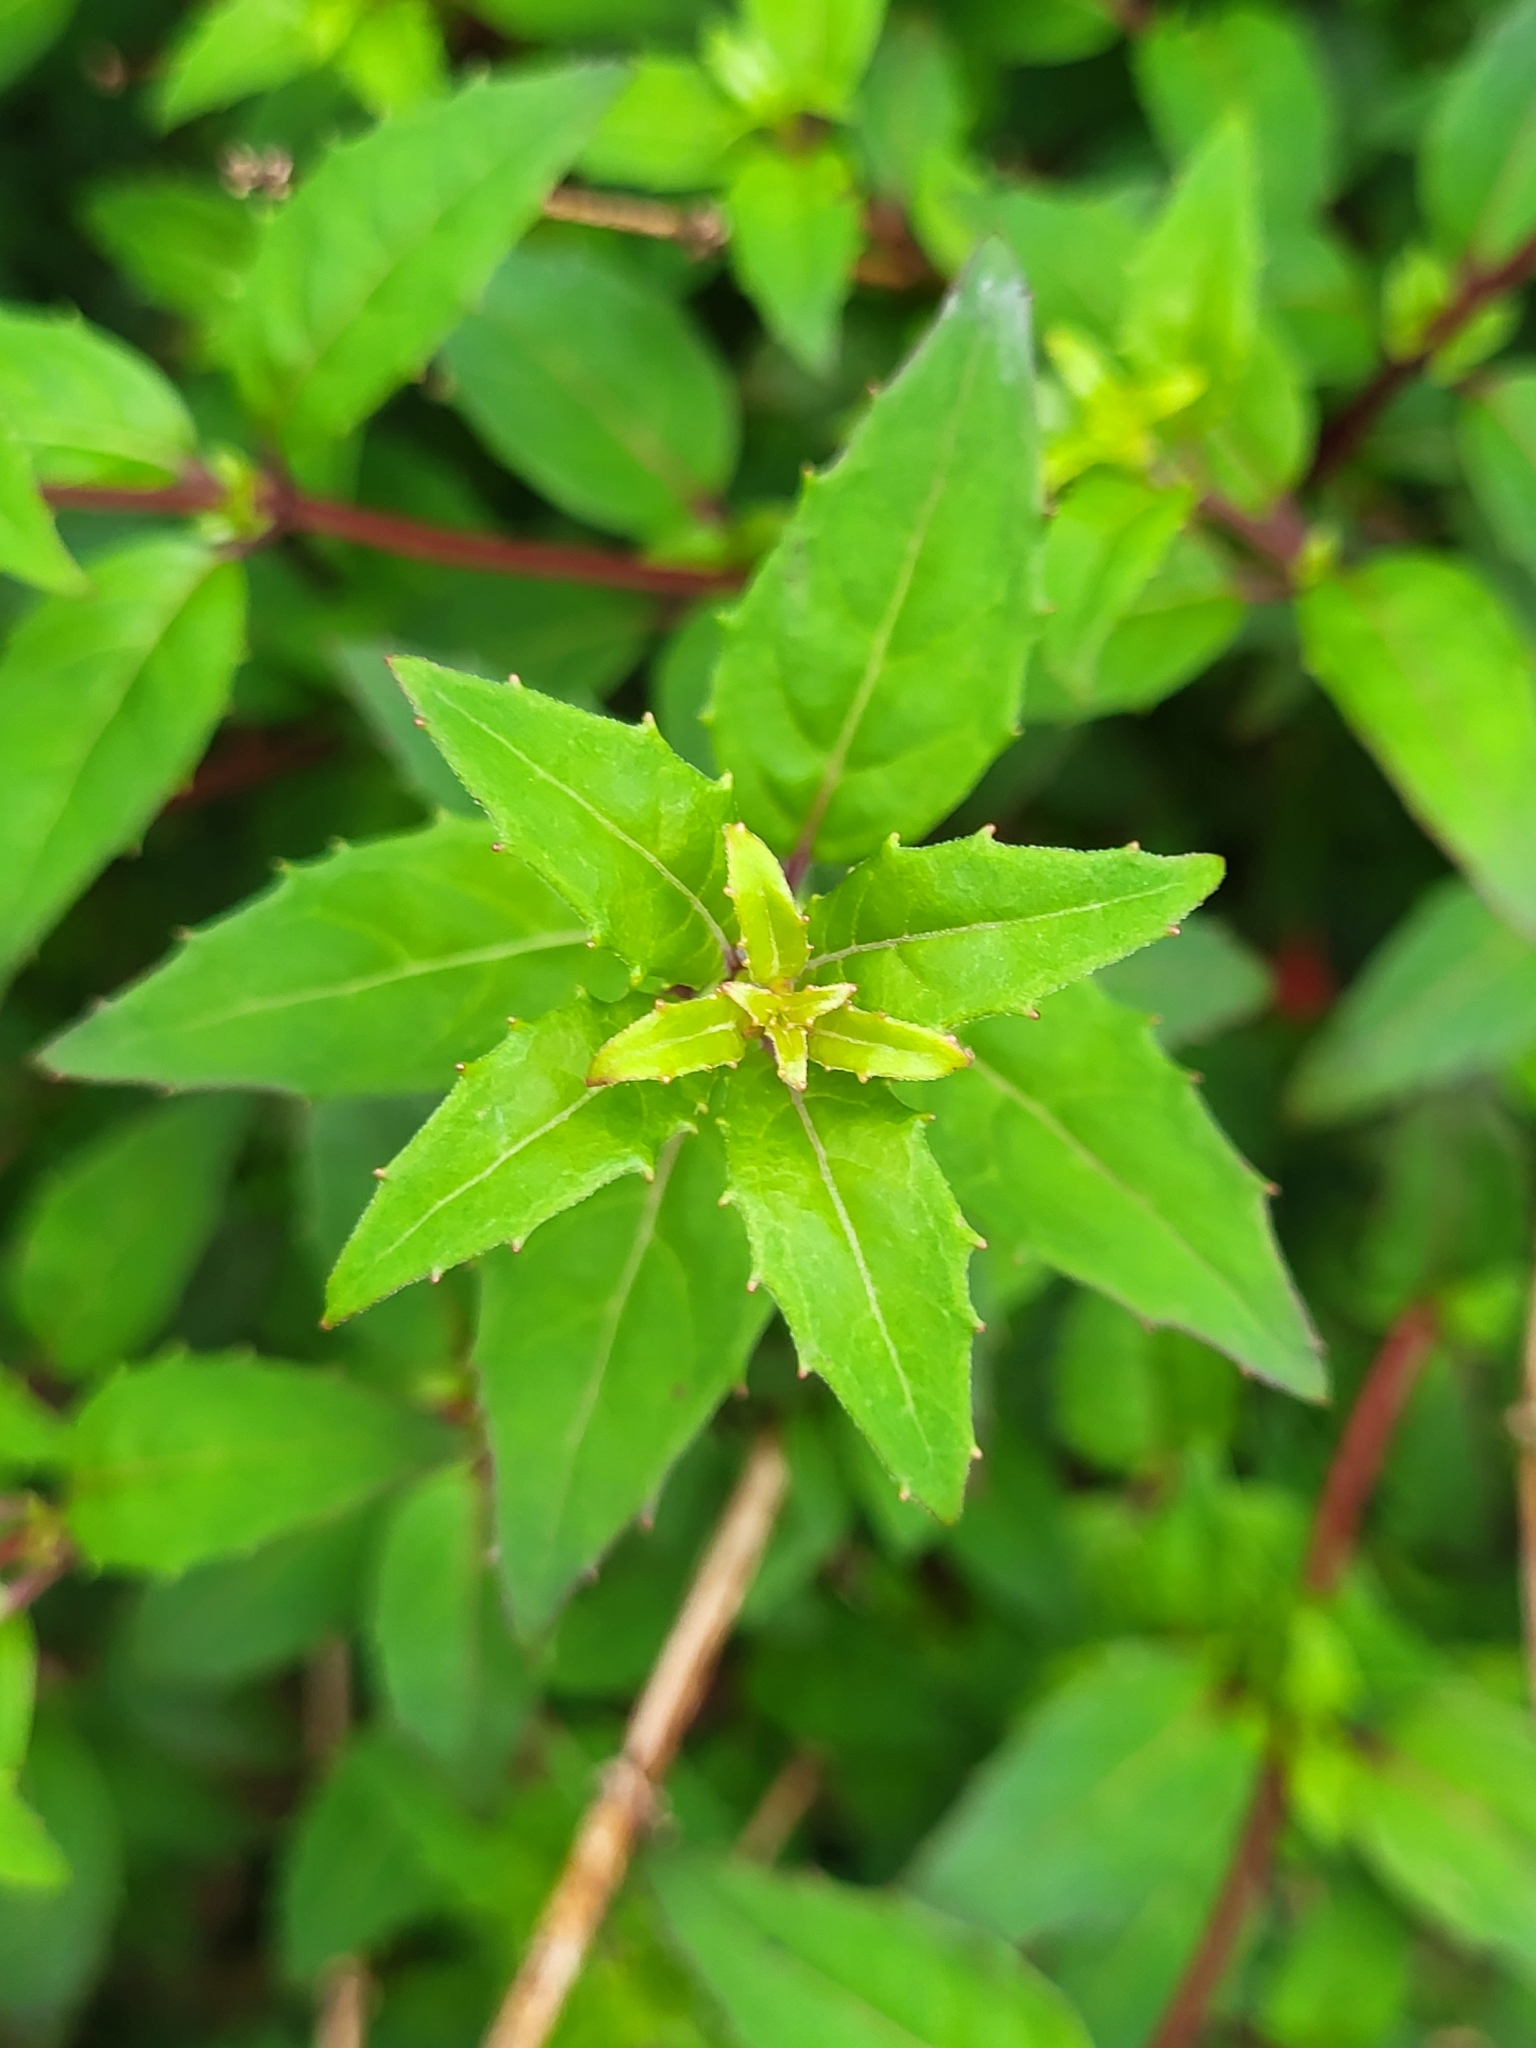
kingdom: Plantae
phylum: Tracheophyta
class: Magnoliopsida
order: Myrtales
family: Onagraceae
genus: Fuchsia
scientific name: Fuchsia magellanica
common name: Hardy fuchsia
